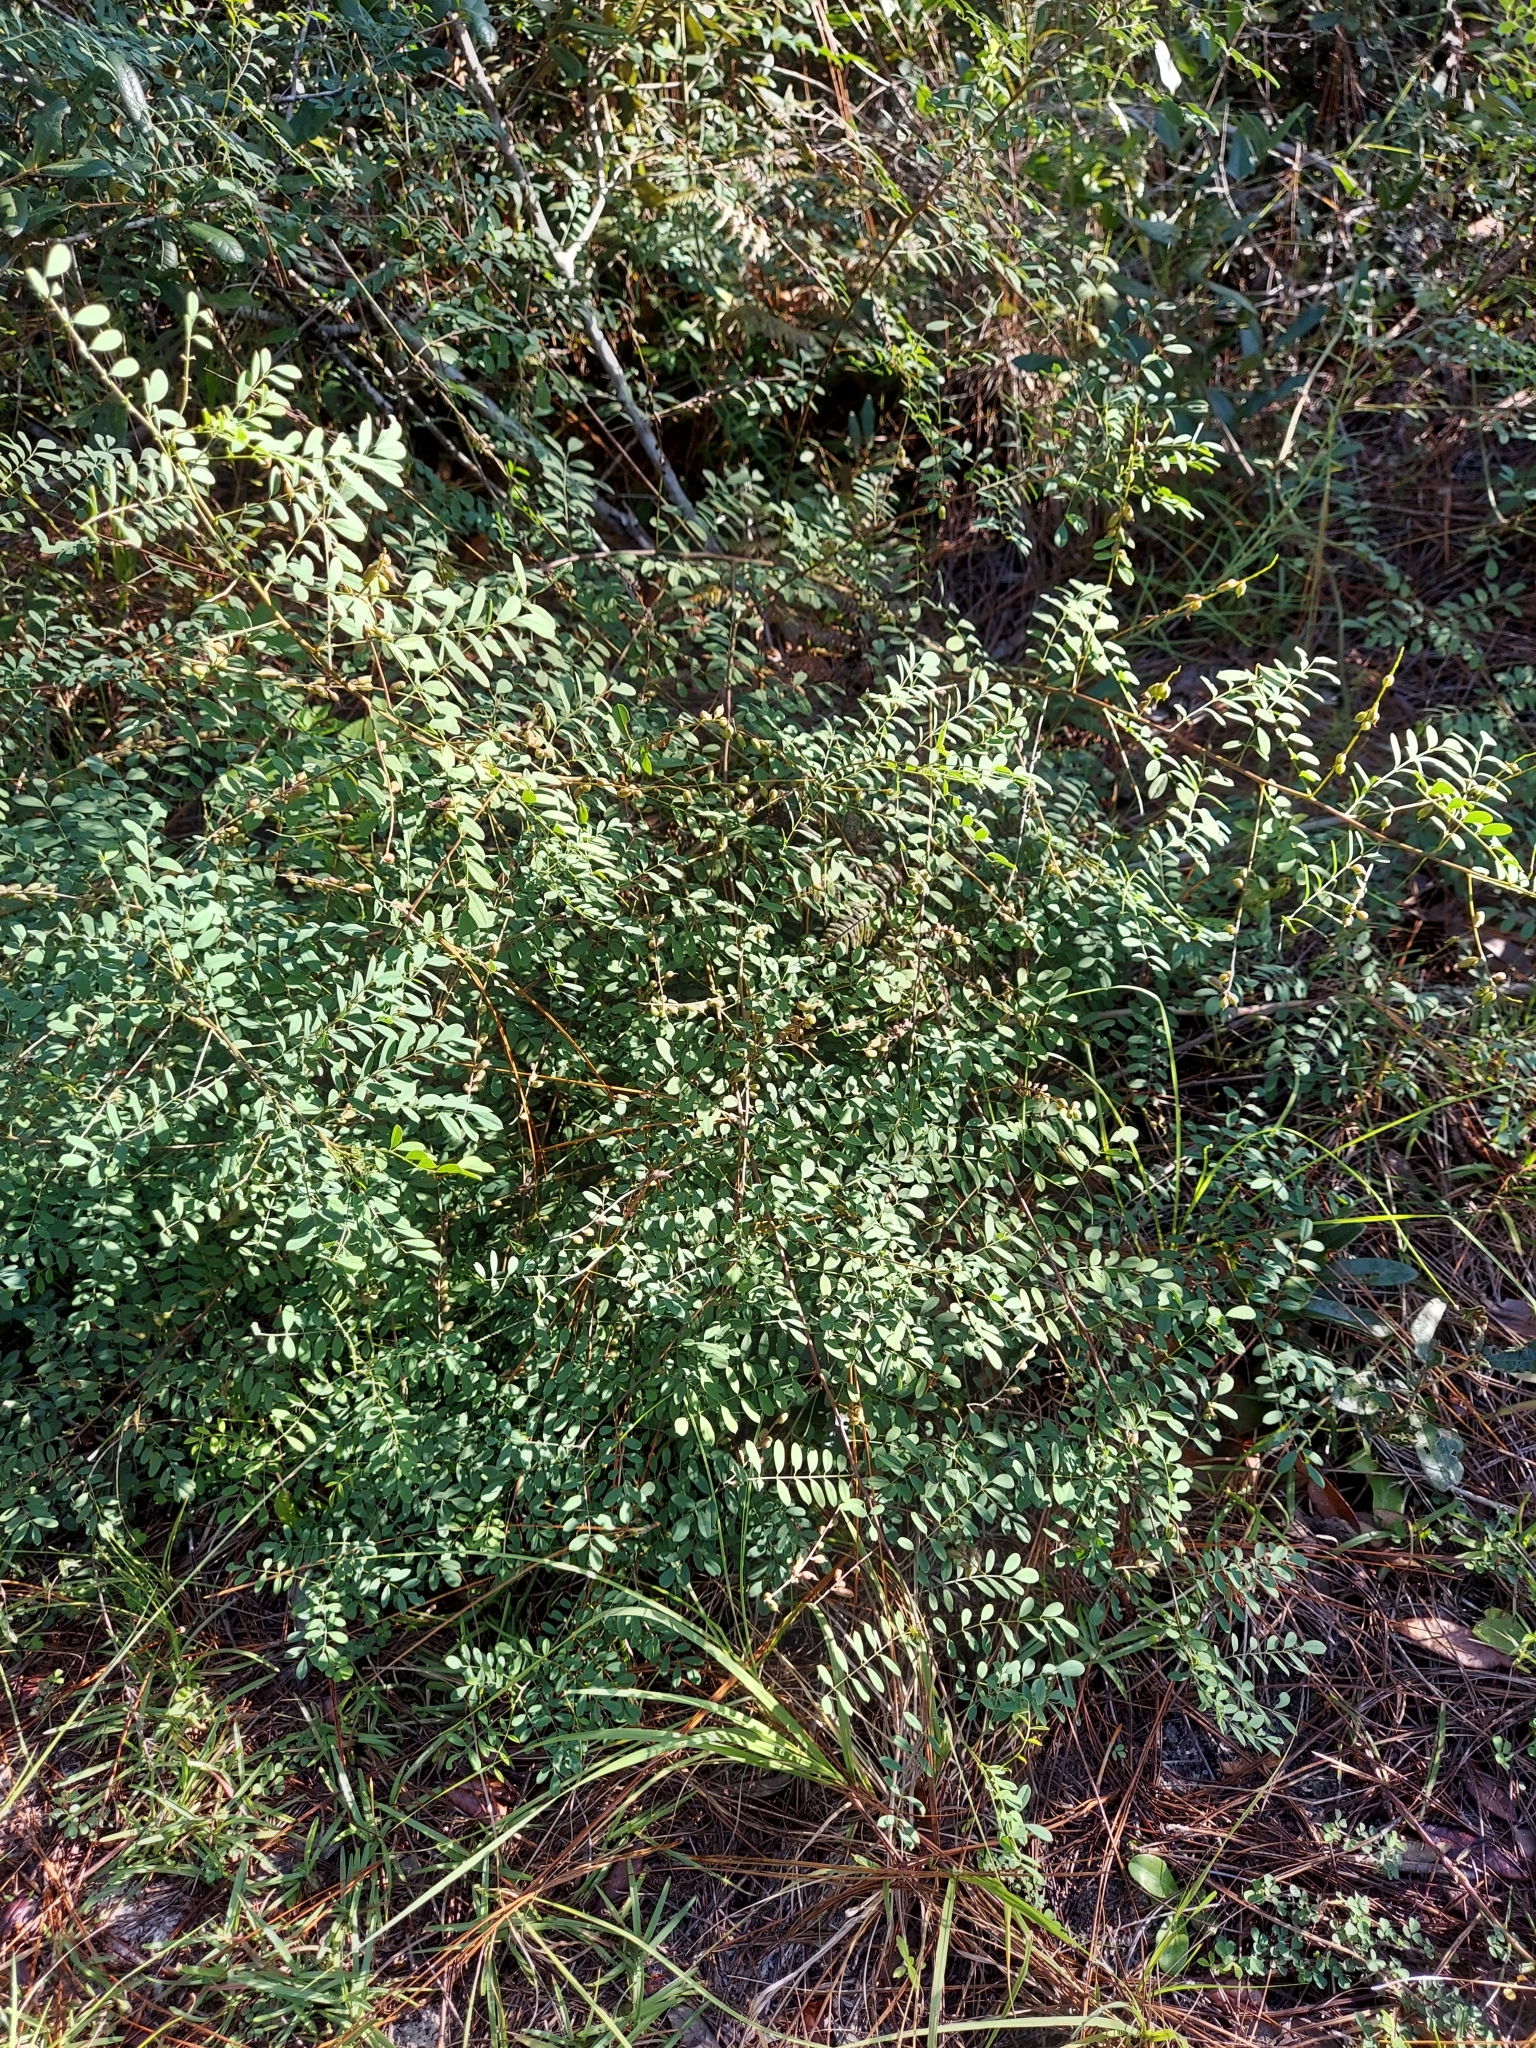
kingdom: Plantae
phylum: Tracheophyta
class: Magnoliopsida
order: Fabales
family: Fabaceae
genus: Indigofera
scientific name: Indigofera caroliniana
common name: Wild indigo
